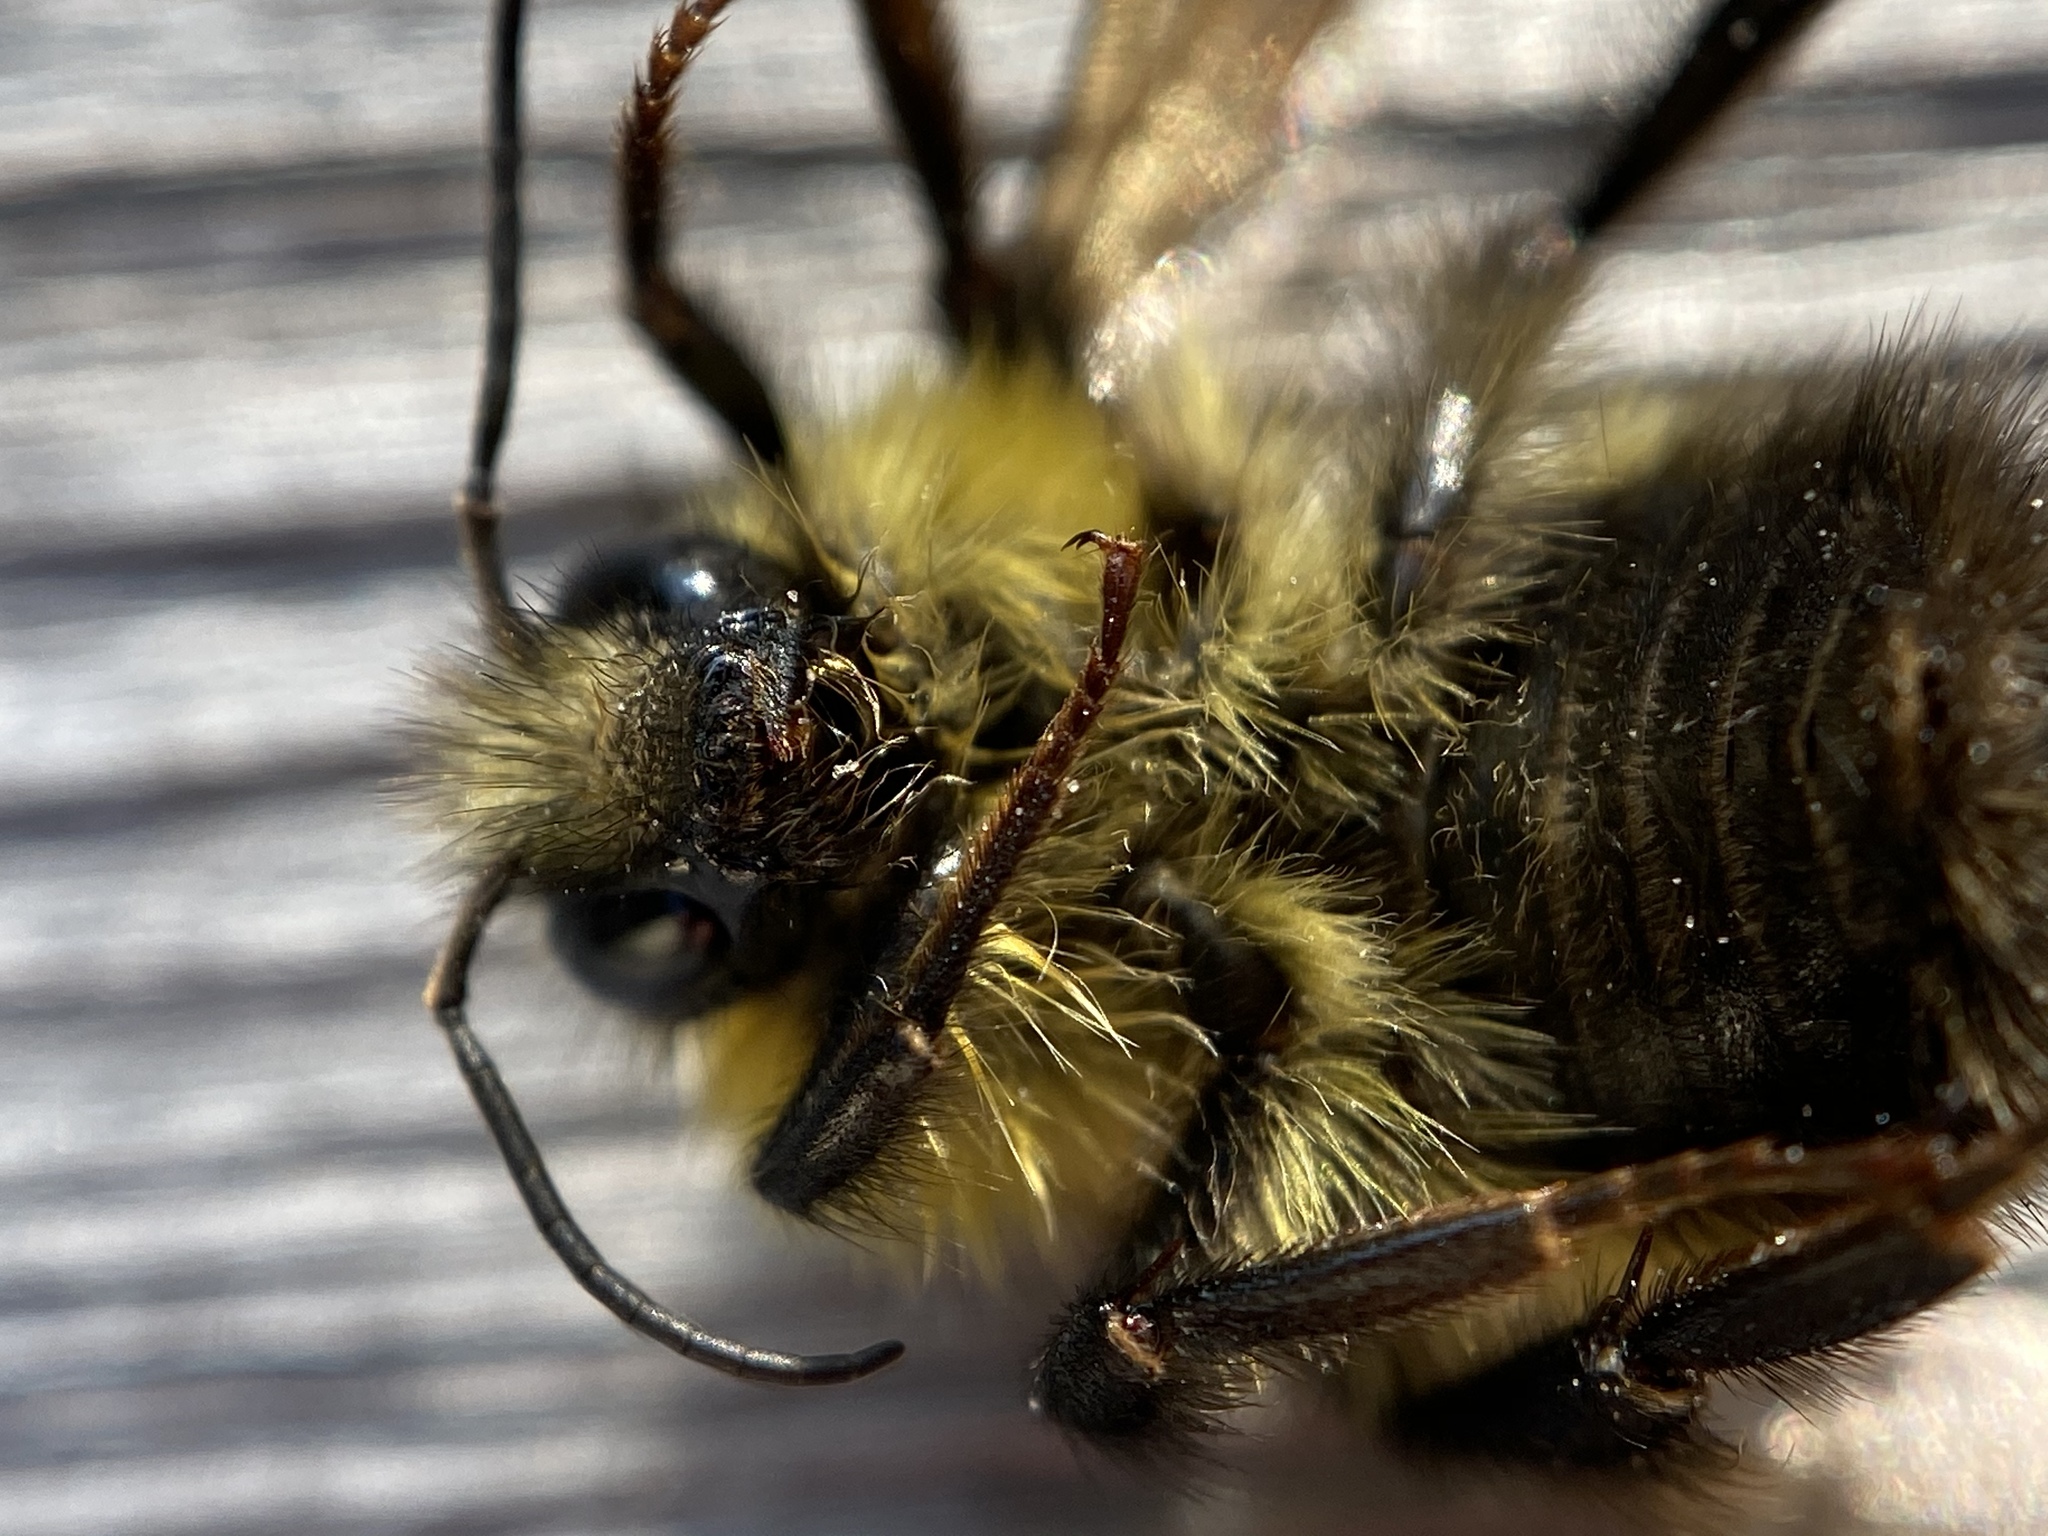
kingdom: Animalia
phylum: Arthropoda
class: Insecta
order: Hymenoptera
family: Apidae
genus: Bombus
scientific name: Bombus perplexus
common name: Confusing bumble bee
